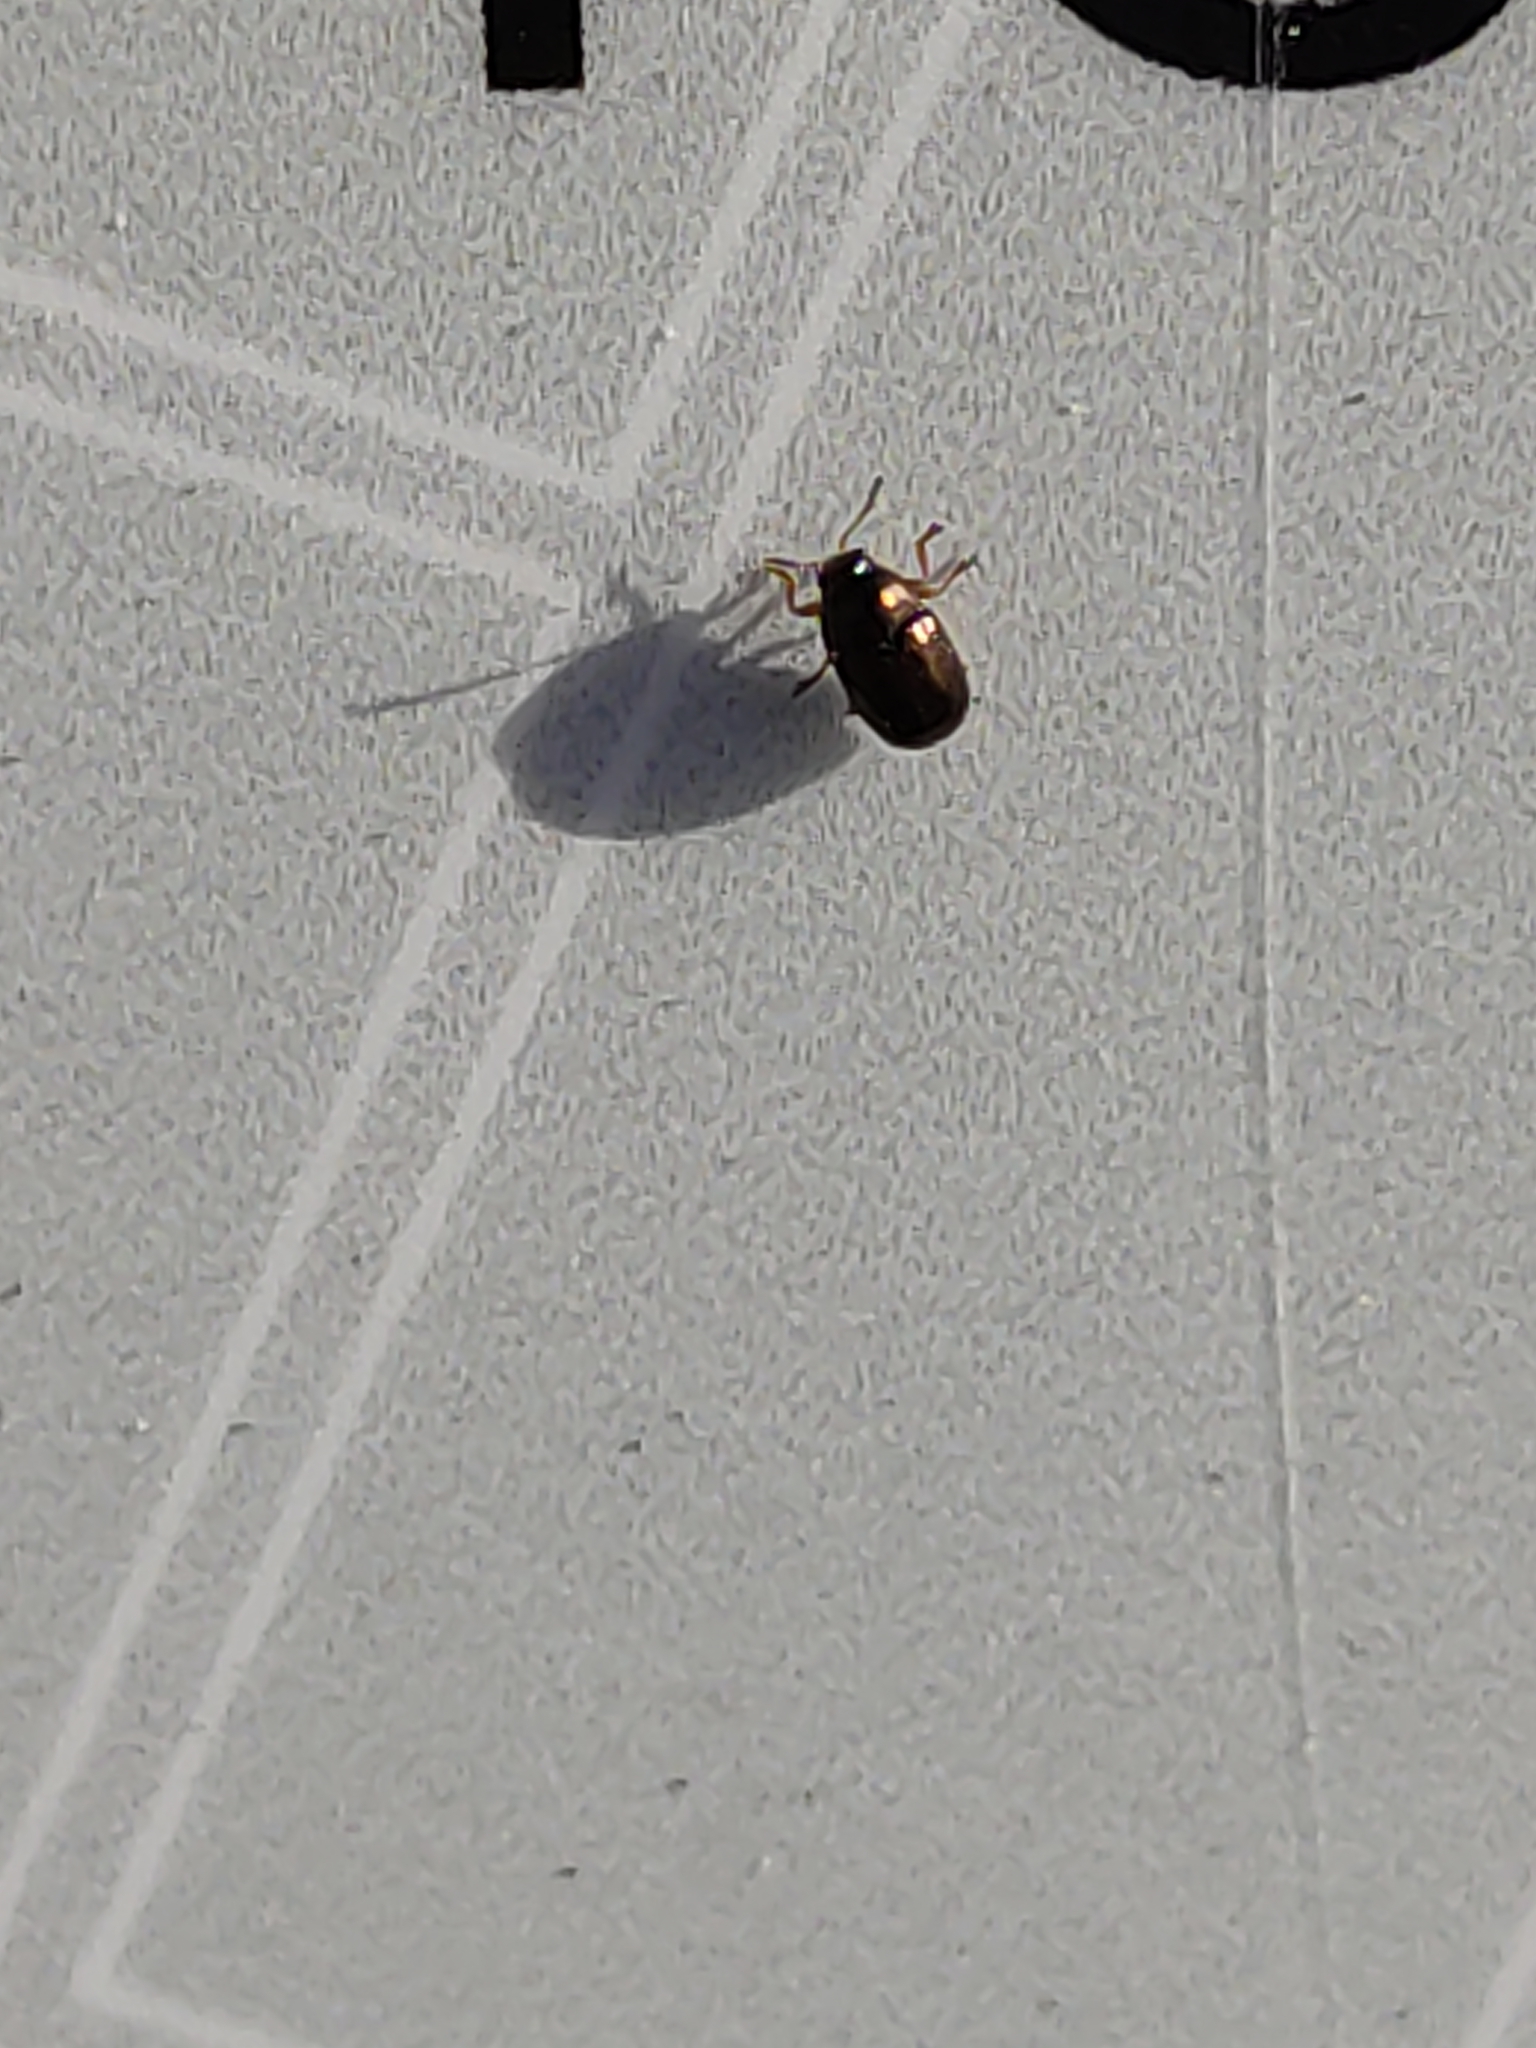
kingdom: Animalia
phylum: Arthropoda
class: Insecta
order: Coleoptera
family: Chrysomelidae
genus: Diachus
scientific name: Diachus auratus
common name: Bronze leaf beetle
